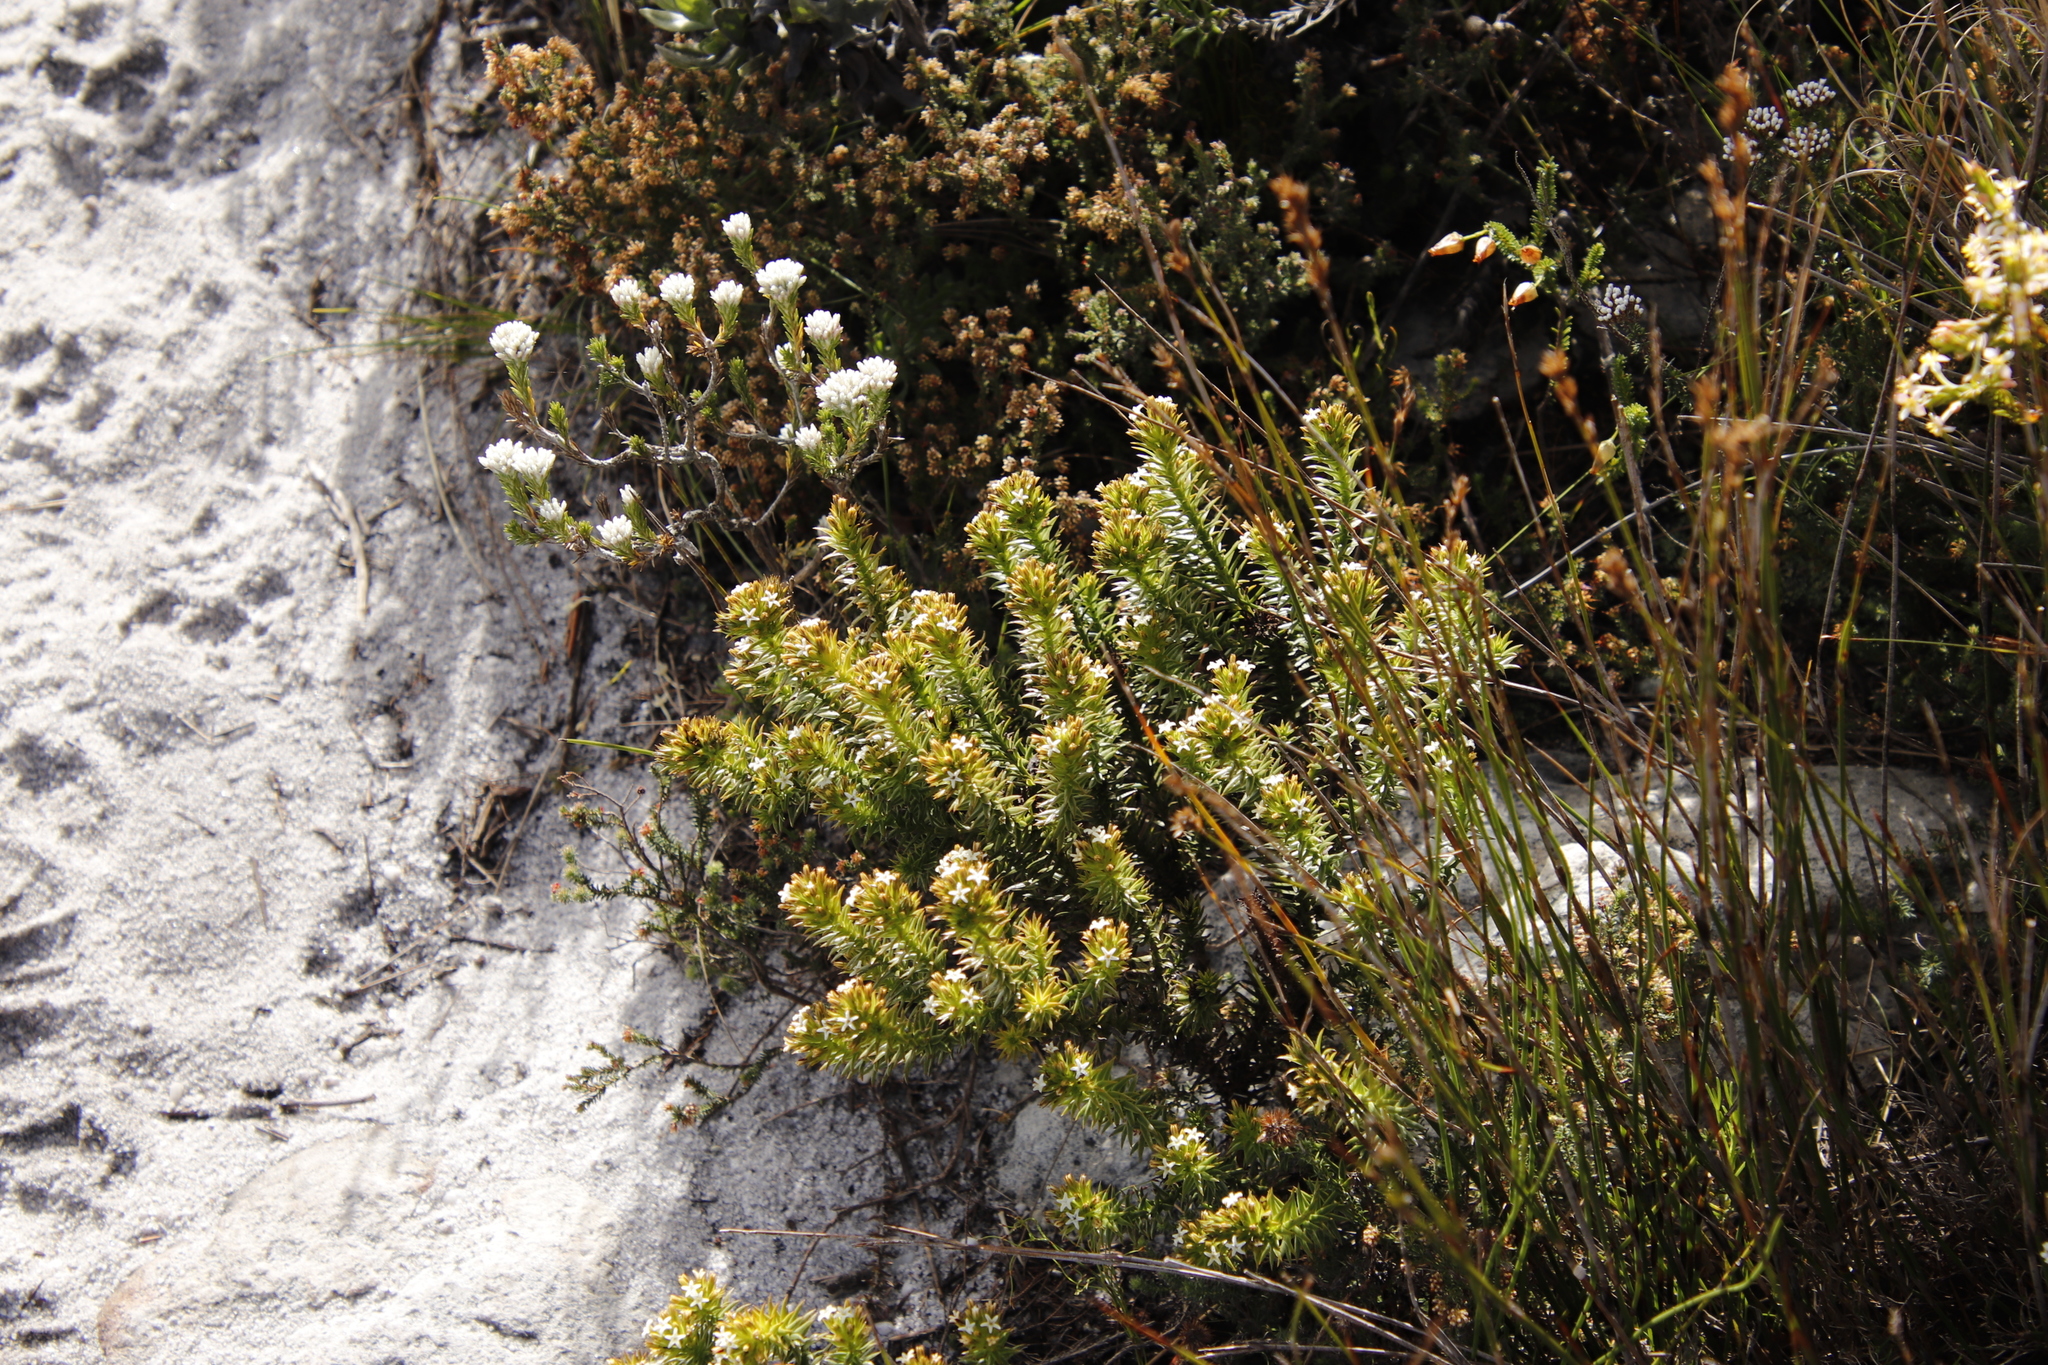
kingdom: Plantae
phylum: Tracheophyta
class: Magnoliopsida
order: Santalales
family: Thesiaceae
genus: Thesium
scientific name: Thesium viridifolium
